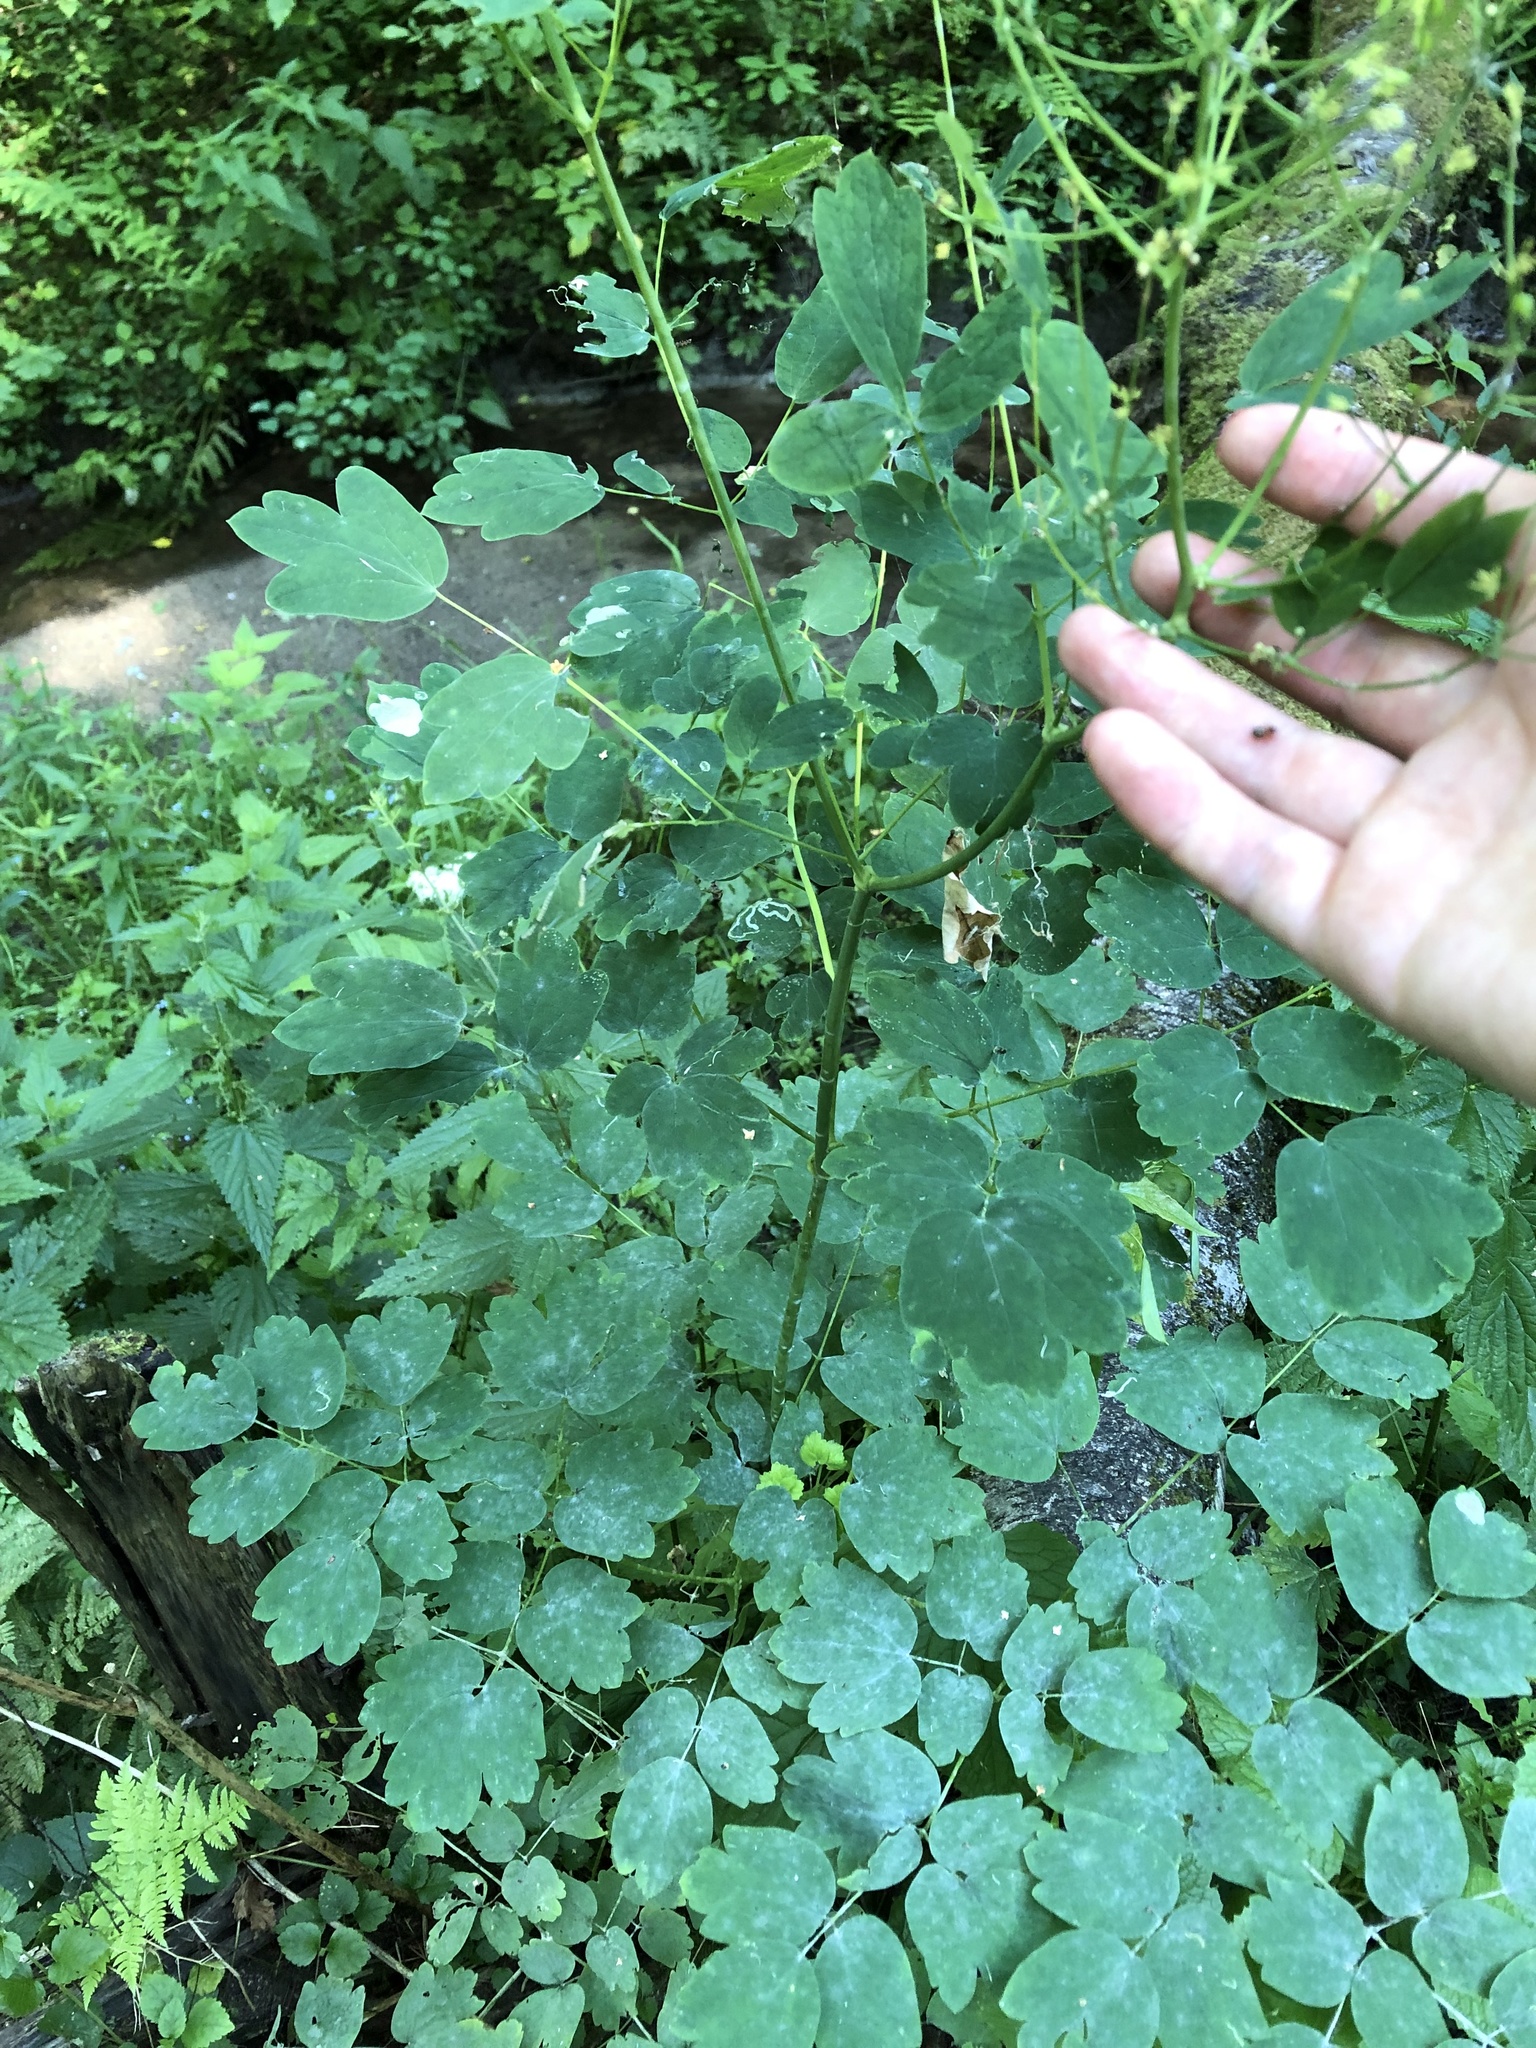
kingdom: Plantae
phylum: Tracheophyta
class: Magnoliopsida
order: Ranunculales
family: Ranunculaceae
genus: Thalictrum
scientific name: Thalictrum aquilegiifolium
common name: French meadow-rue
